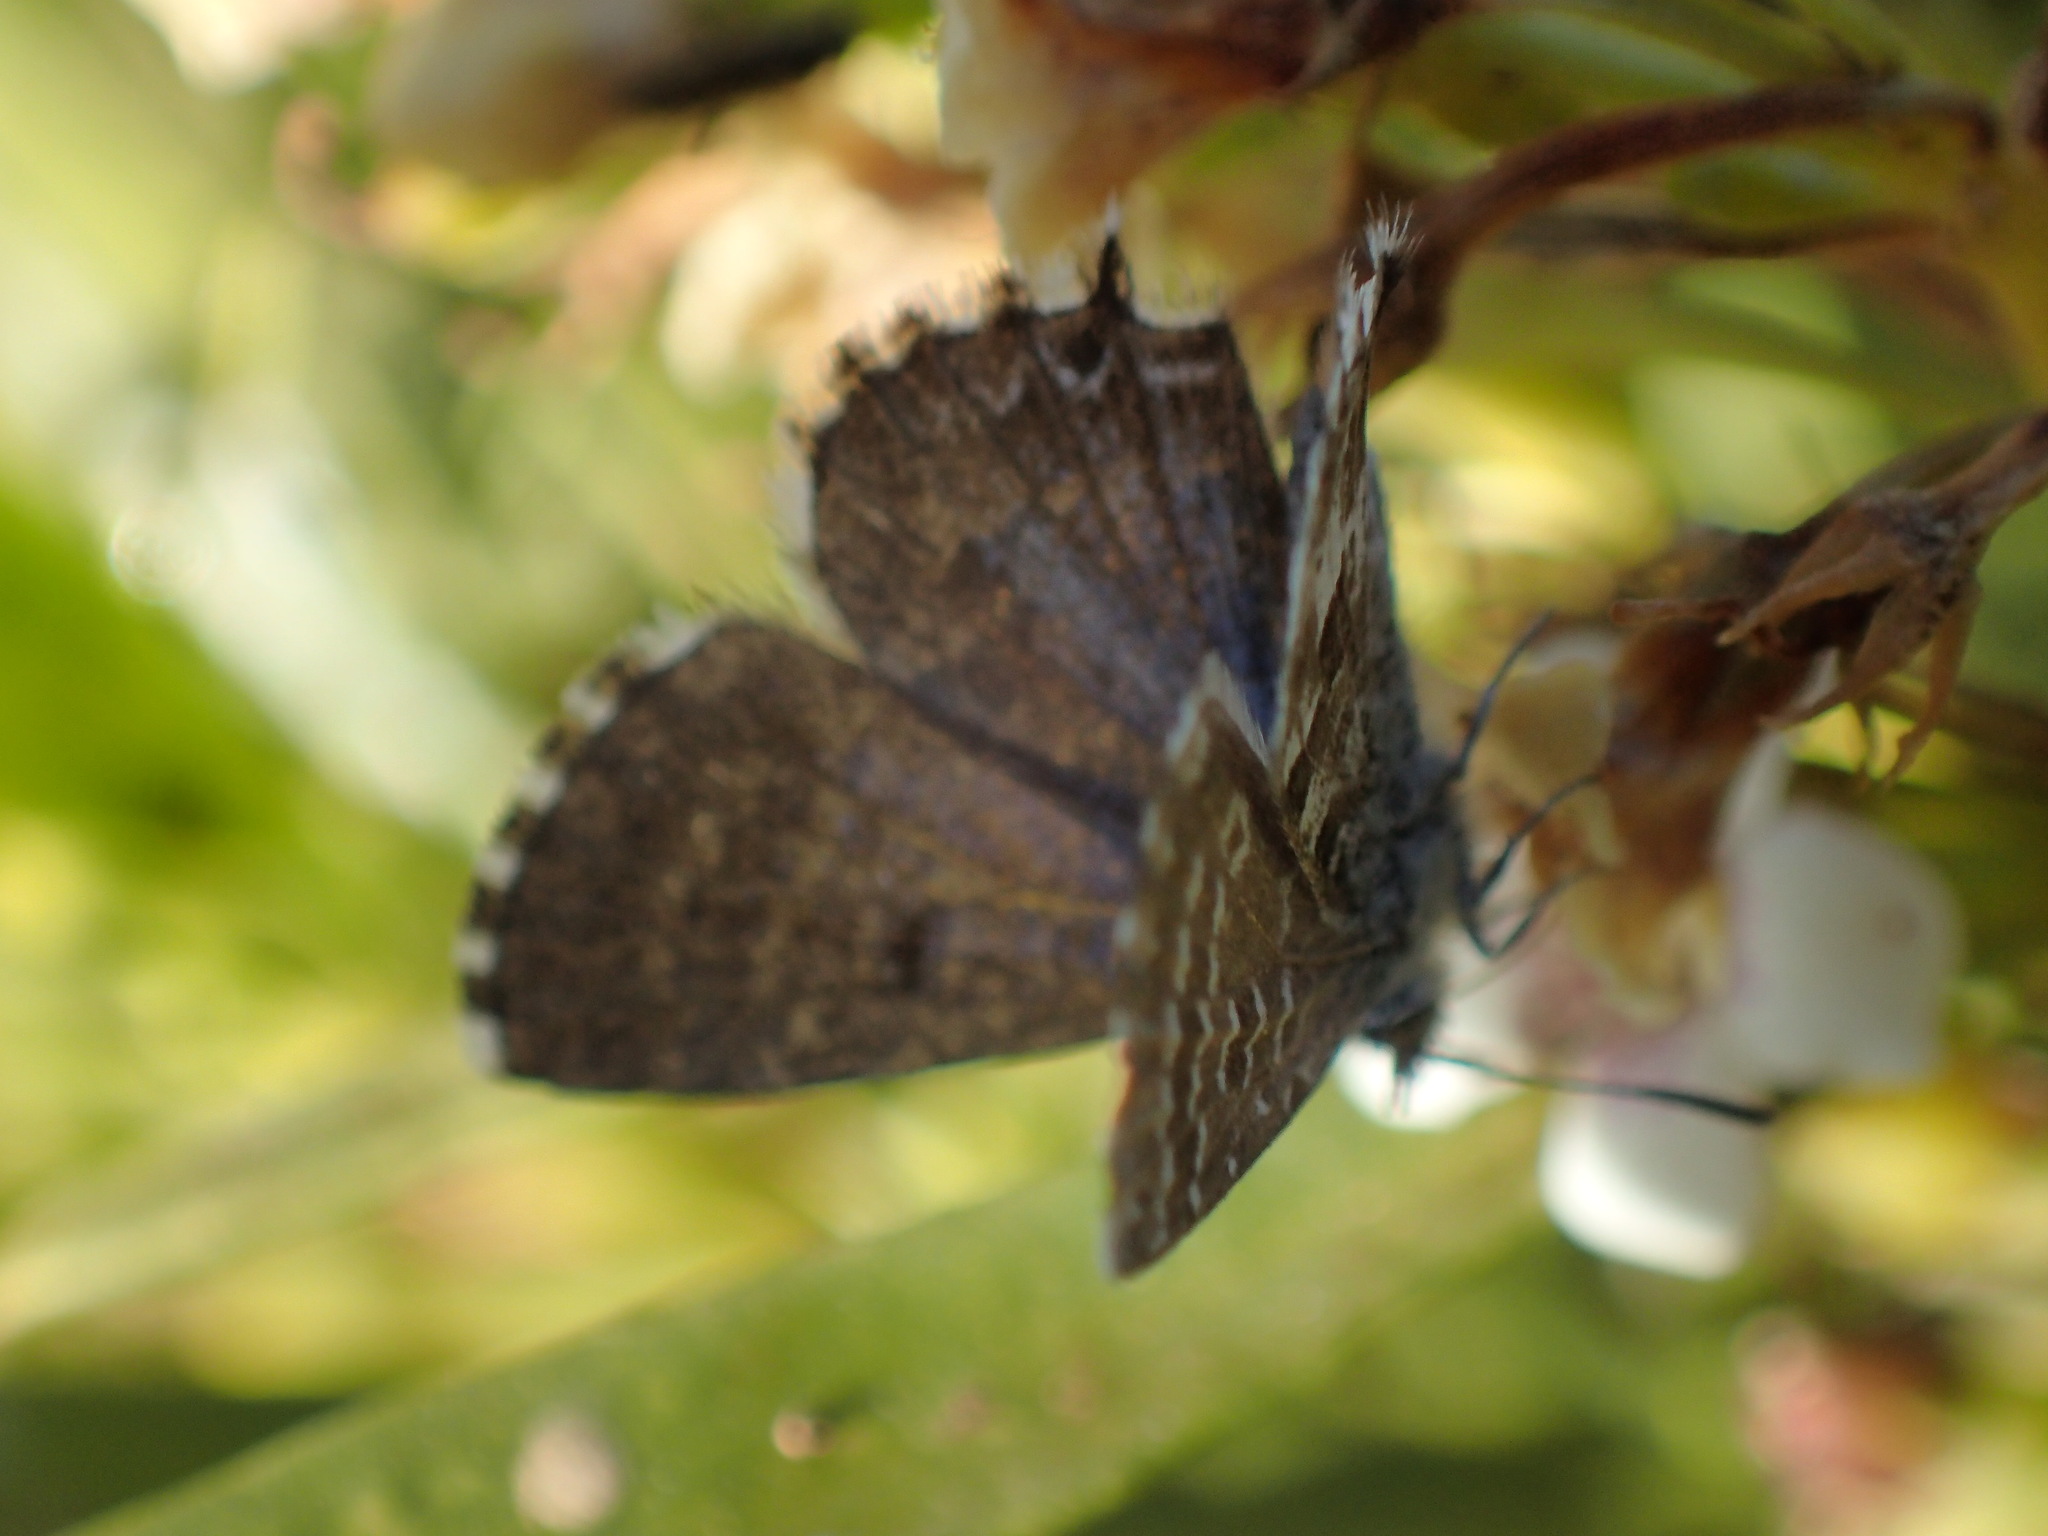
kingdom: Animalia
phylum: Arthropoda
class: Insecta
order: Lepidoptera
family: Lycaenidae
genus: Theclinesthes
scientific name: Theclinesthes serpentata
